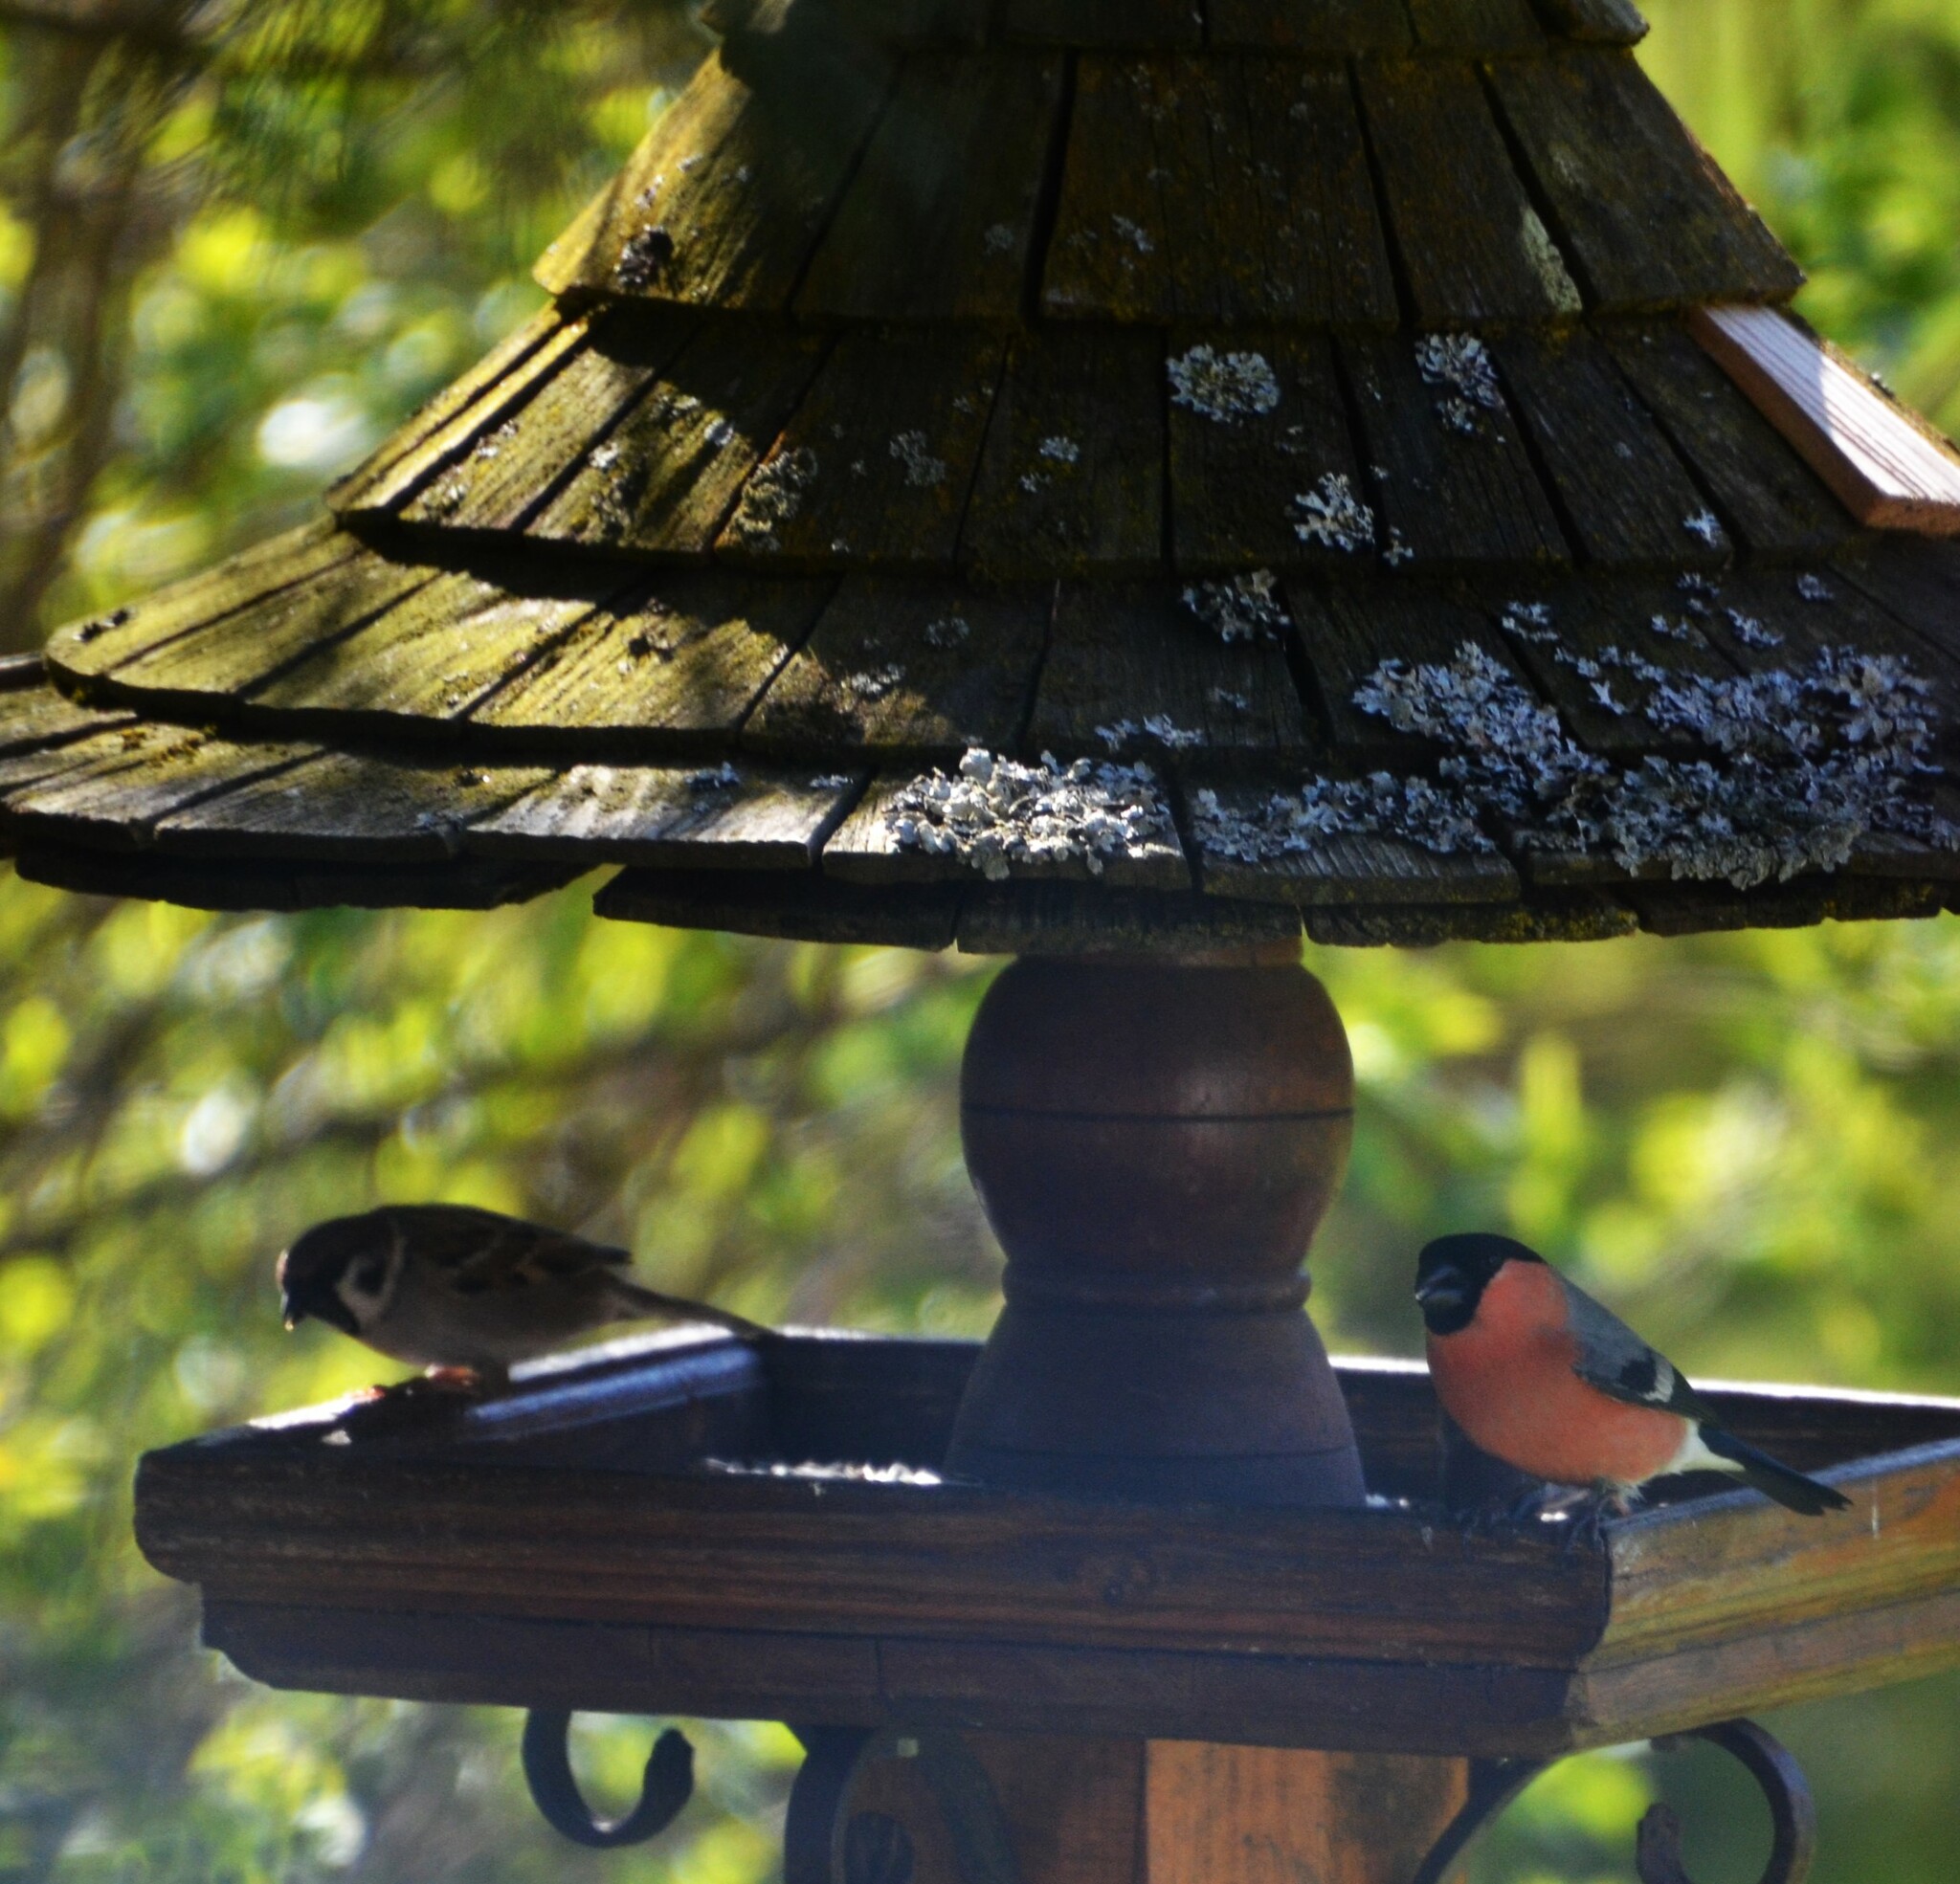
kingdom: Animalia
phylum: Chordata
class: Aves
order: Passeriformes
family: Fringillidae
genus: Pyrrhula
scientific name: Pyrrhula pyrrhula
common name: Eurasian bullfinch
